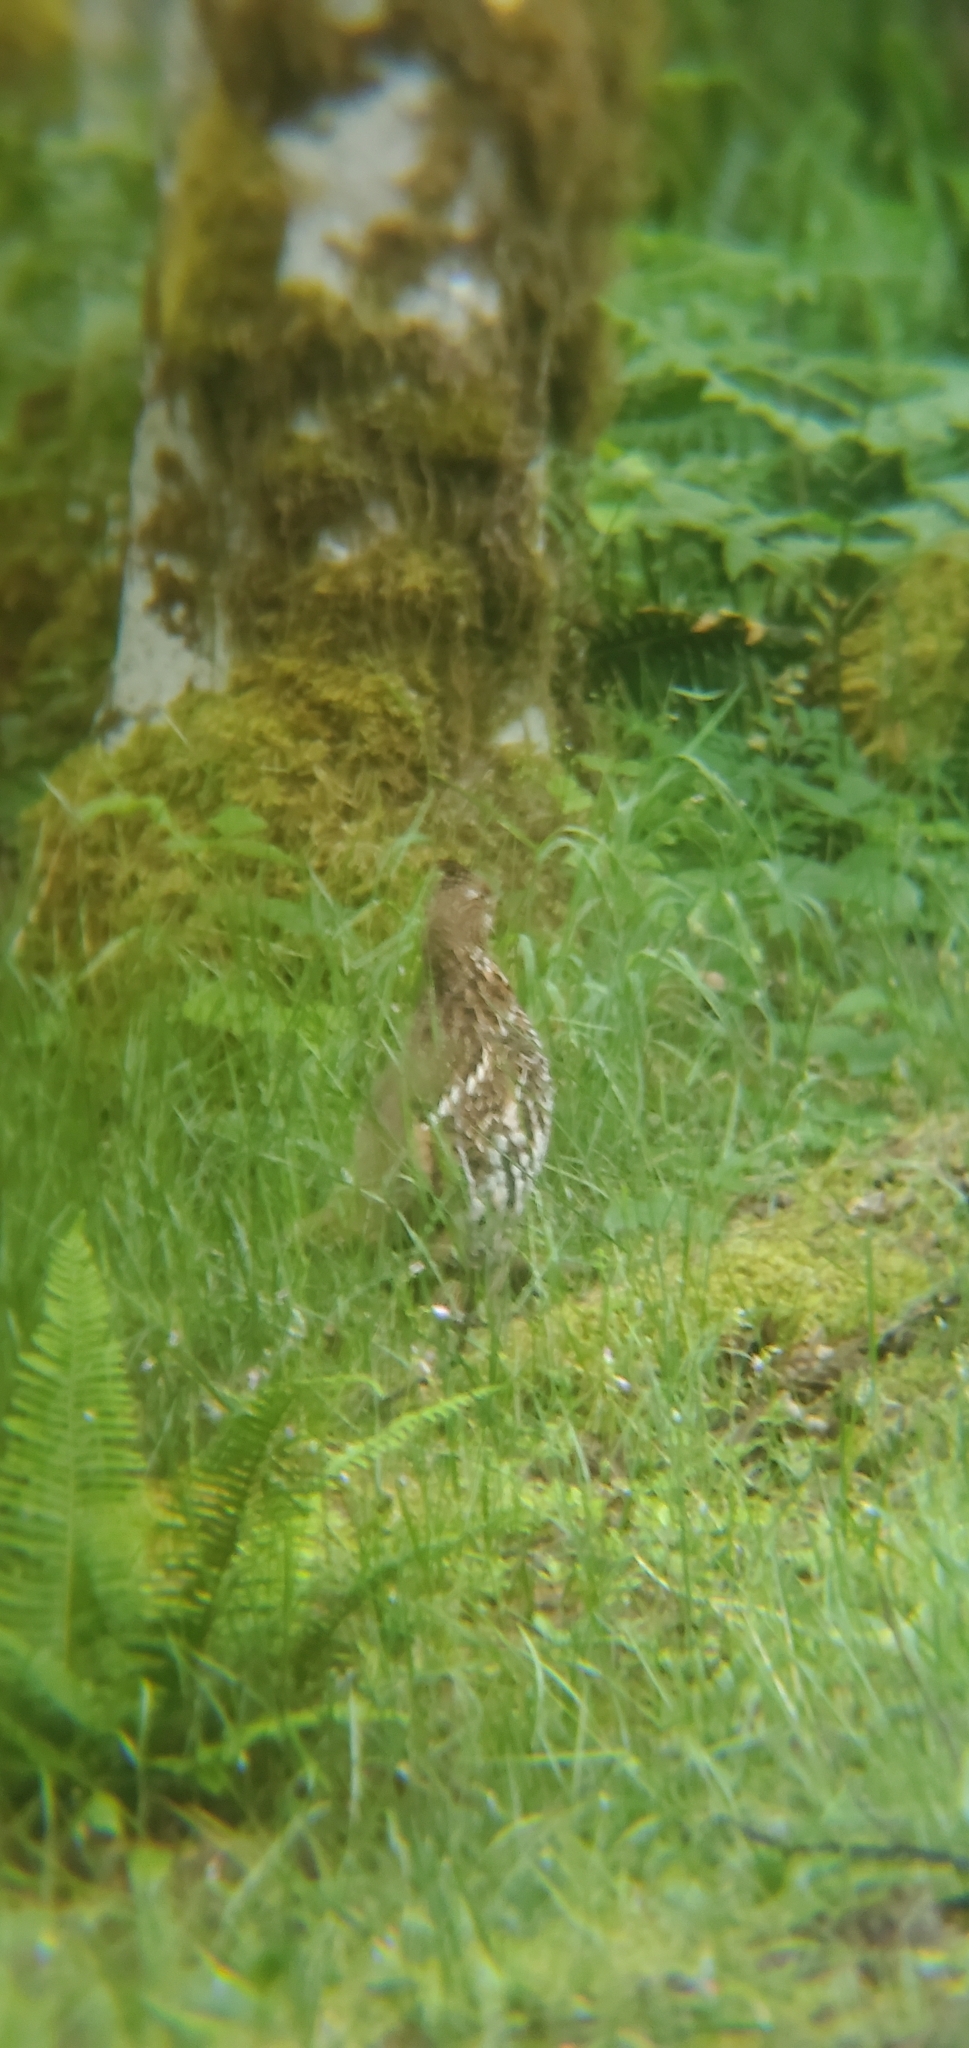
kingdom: Animalia
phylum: Chordata
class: Aves
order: Galliformes
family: Phasianidae
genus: Bonasa
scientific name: Bonasa umbellus
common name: Ruffed grouse
